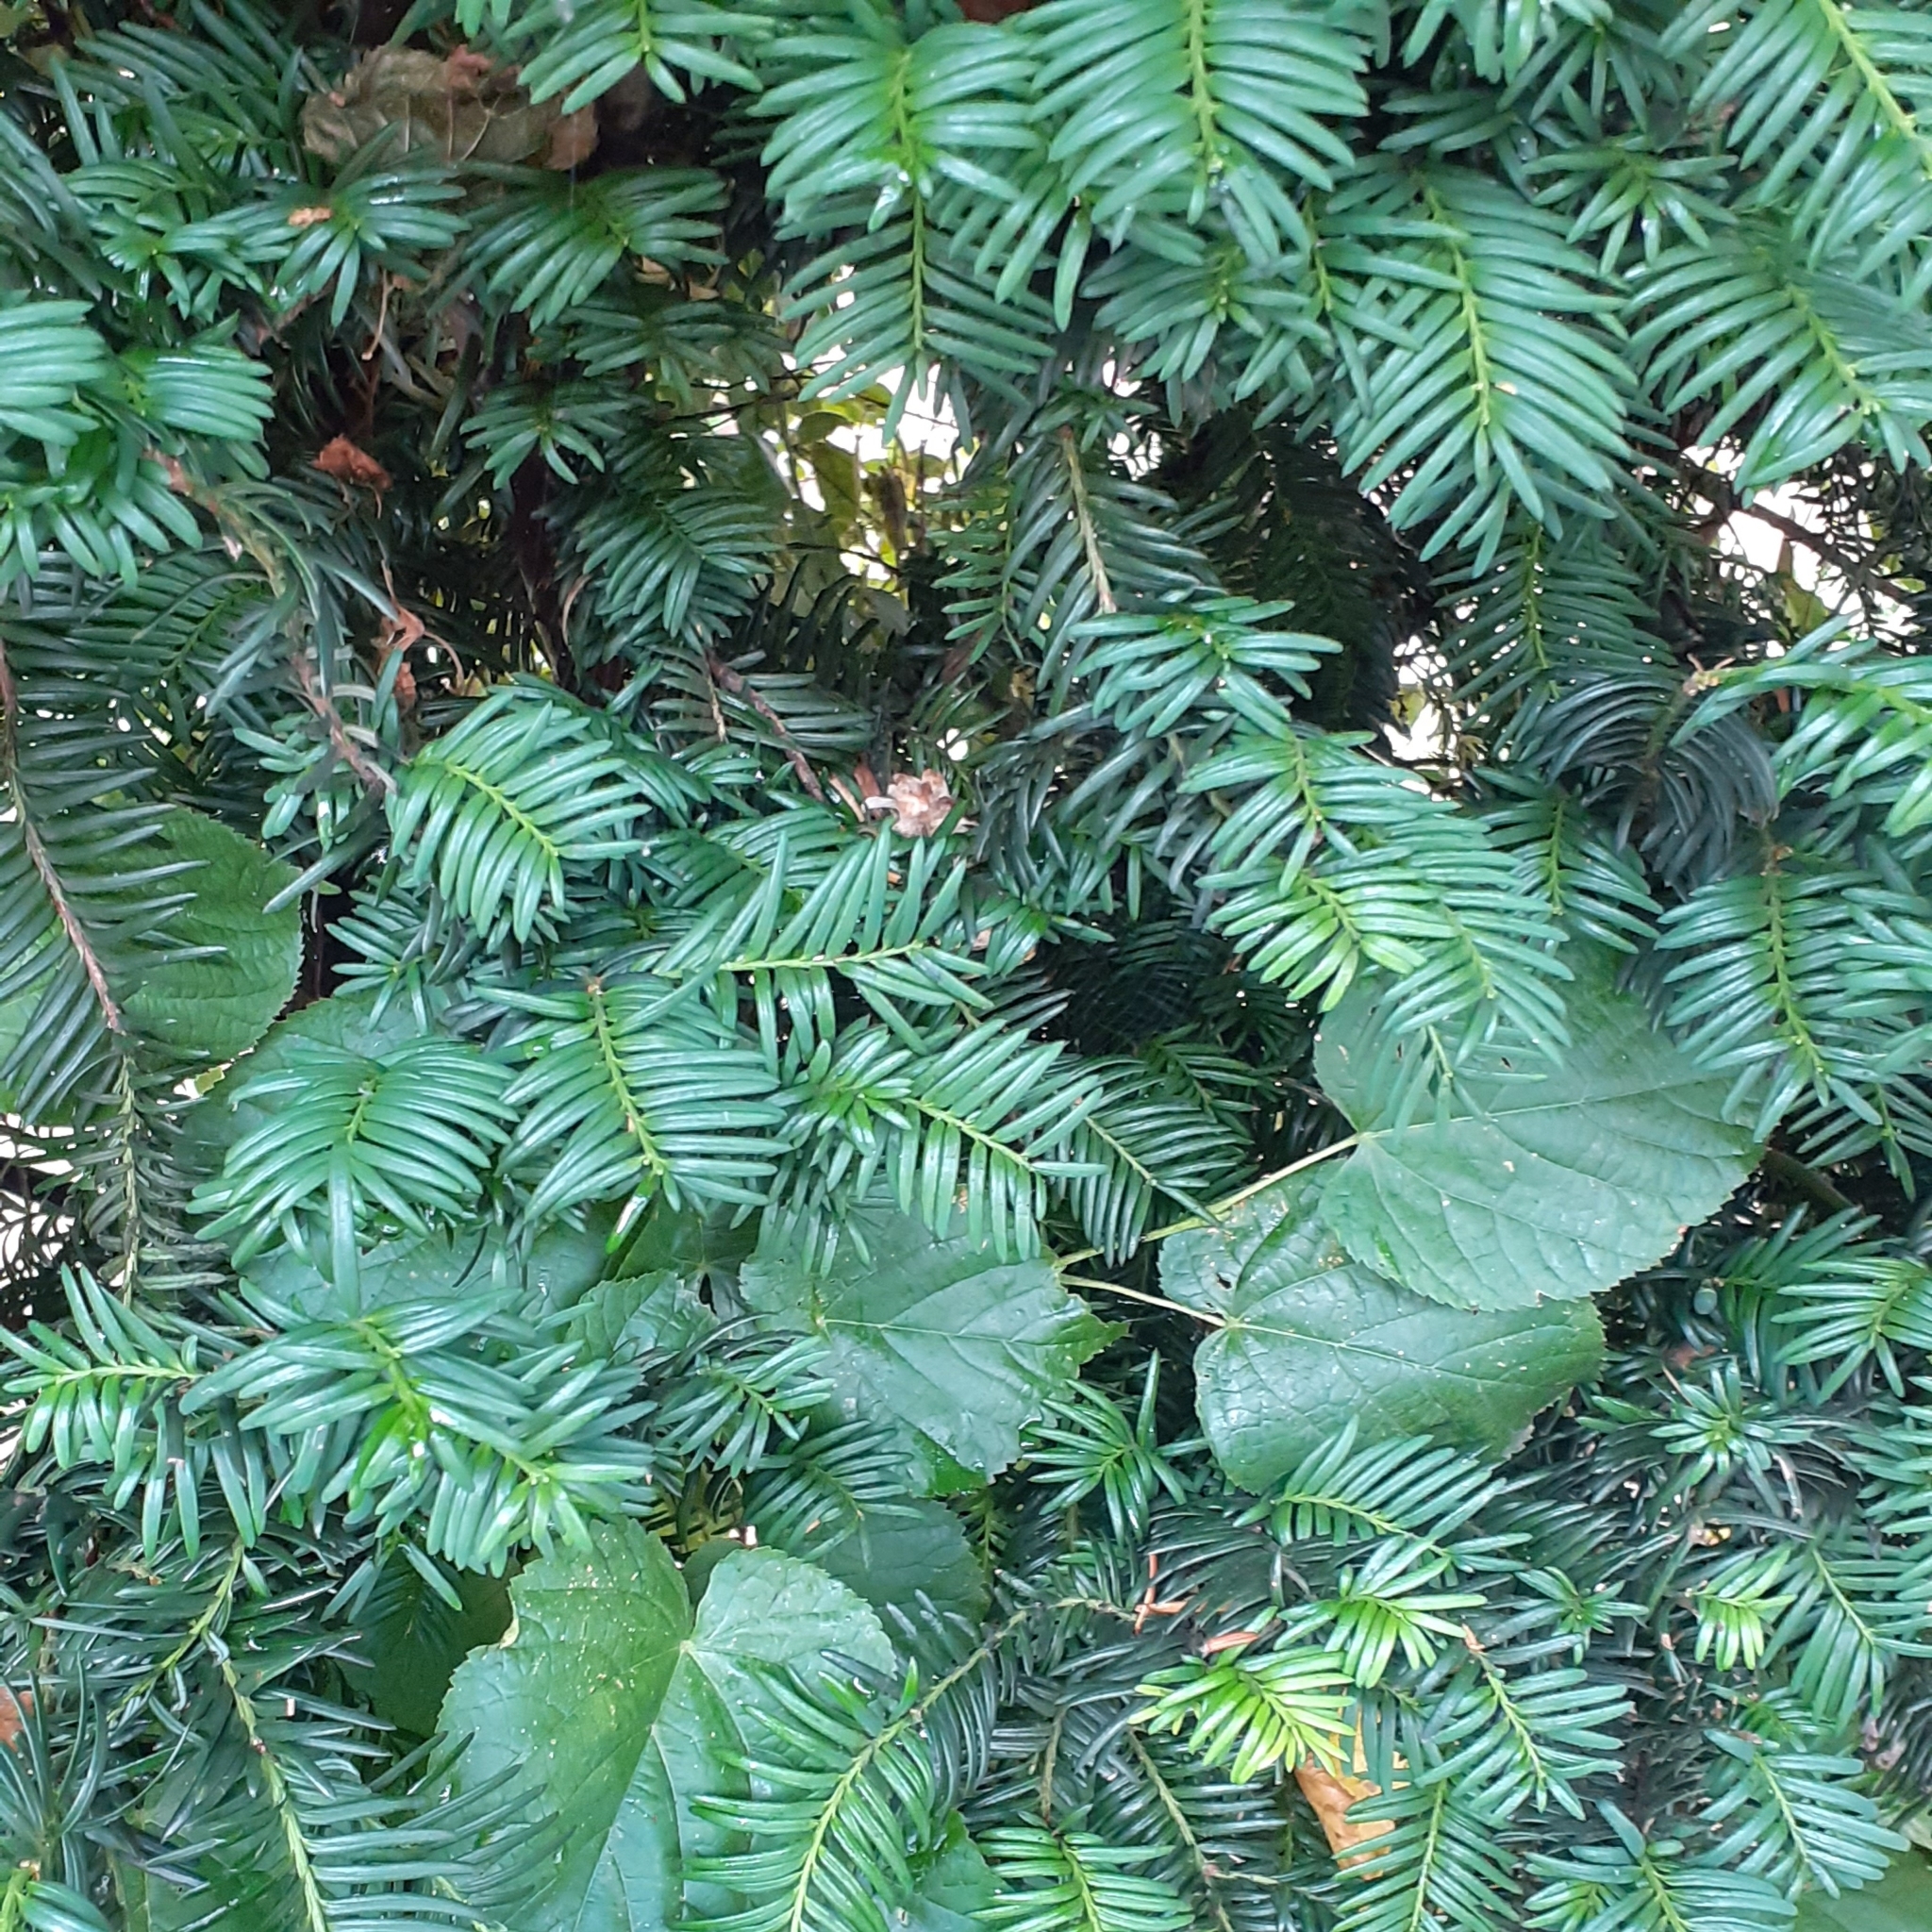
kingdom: Plantae
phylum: Tracheophyta
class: Pinopsida
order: Pinales
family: Taxaceae
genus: Taxus
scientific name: Taxus baccata
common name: Yew
